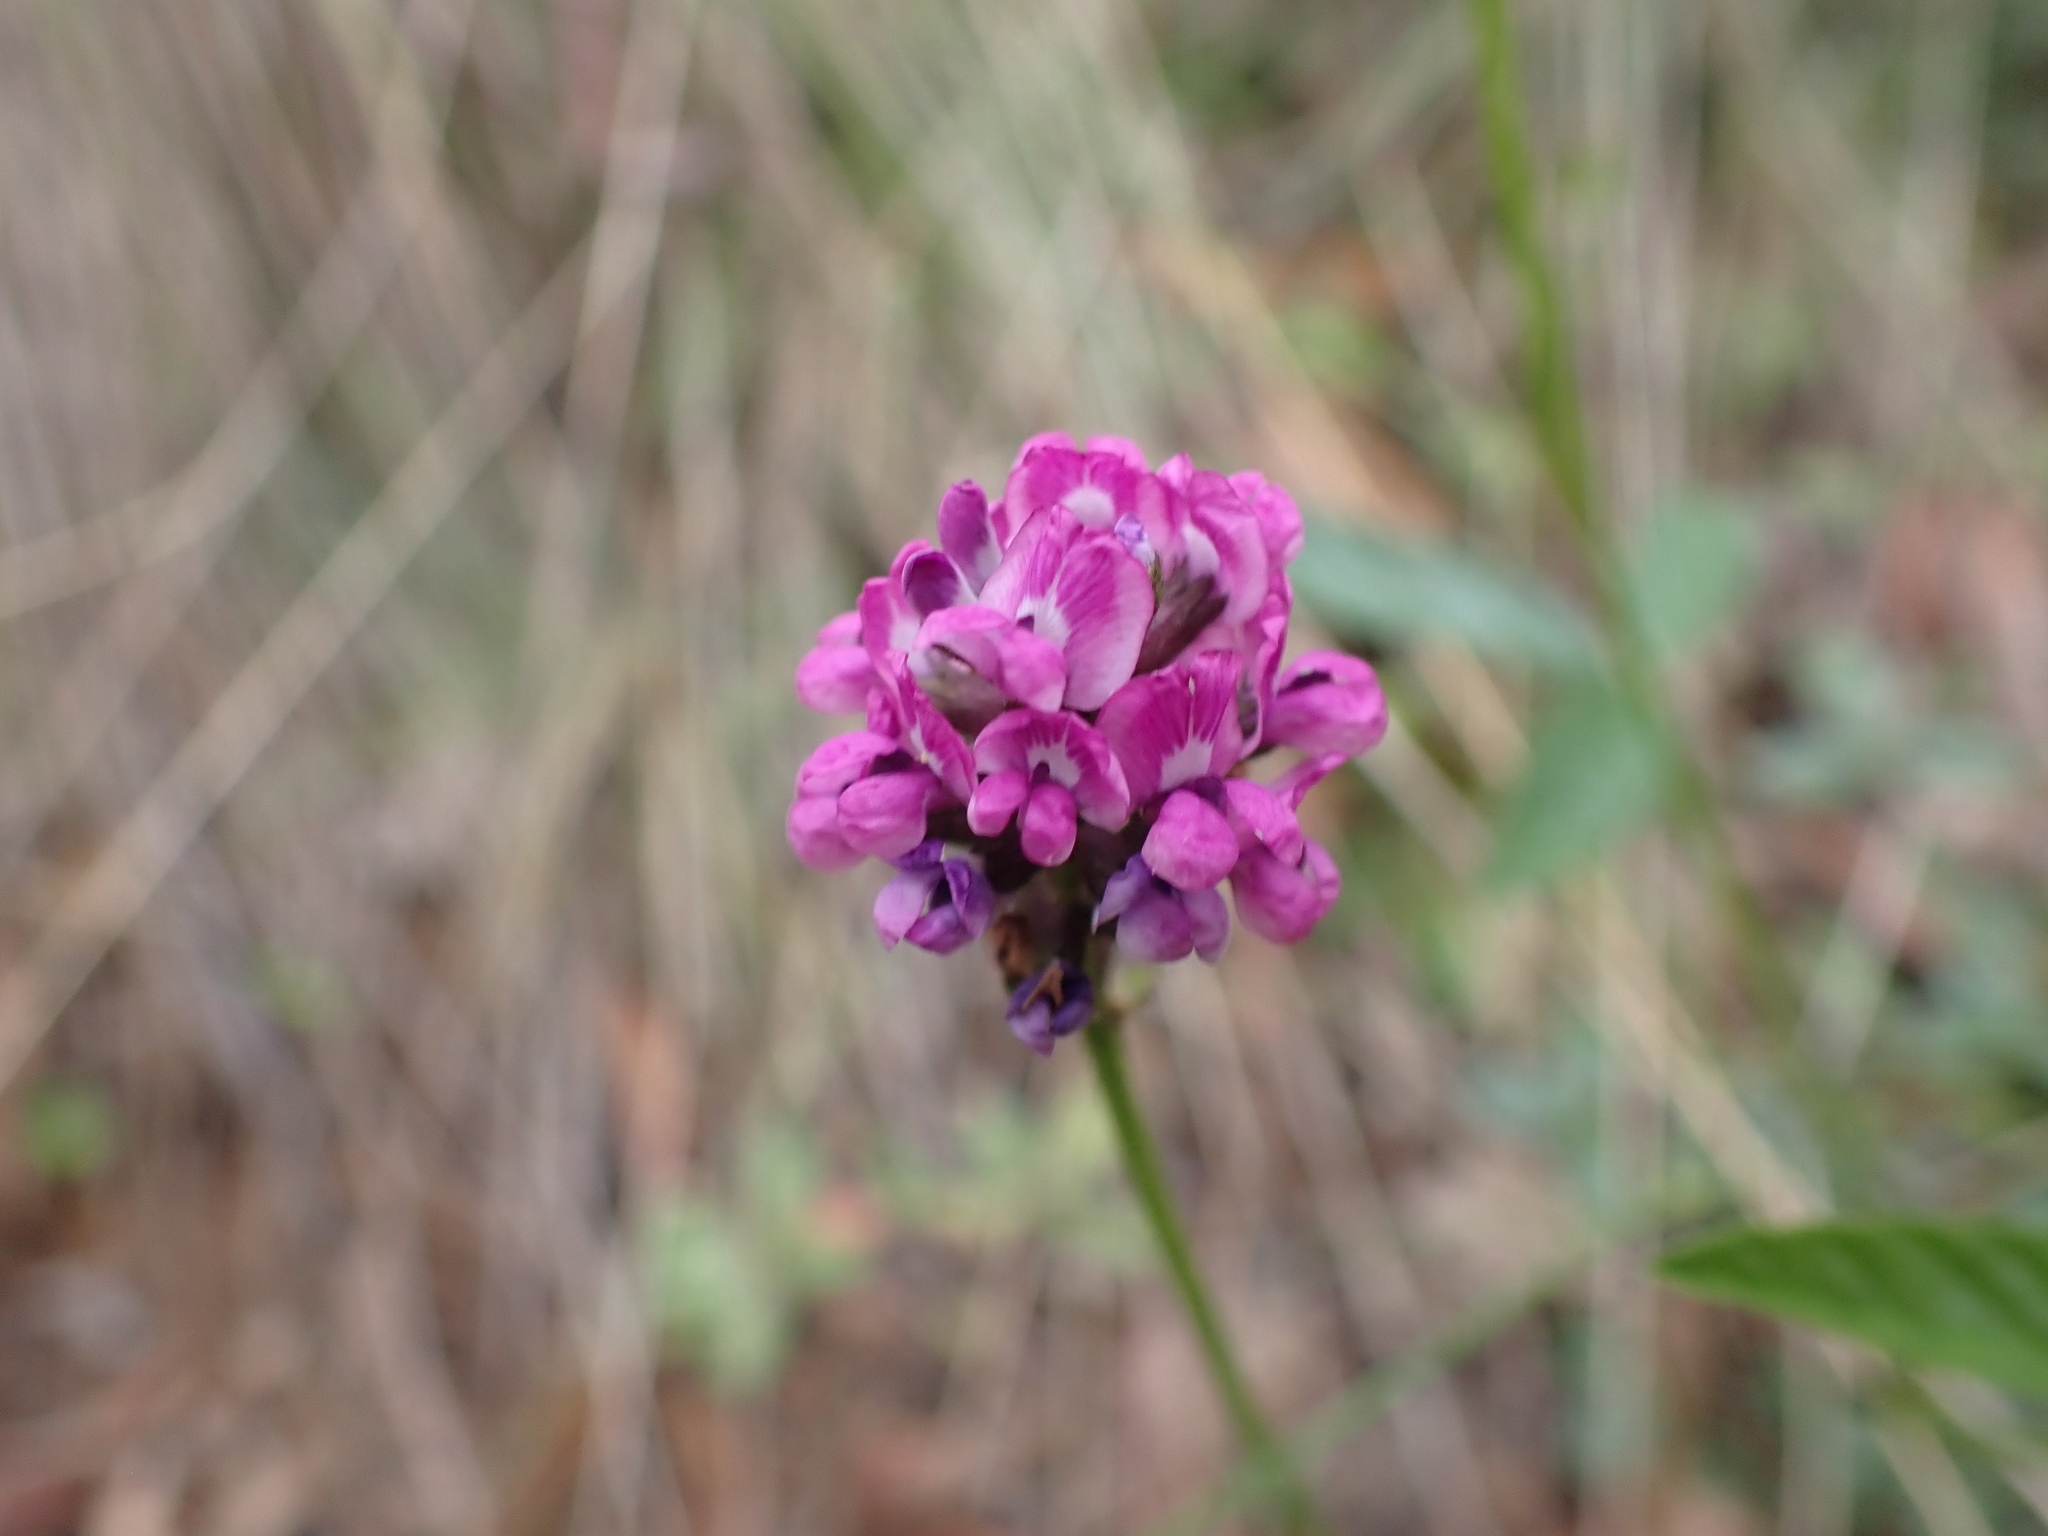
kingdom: Plantae
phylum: Tracheophyta
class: Magnoliopsida
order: Fabales
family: Fabaceae
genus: Cullen
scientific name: Cullen microcephalum
